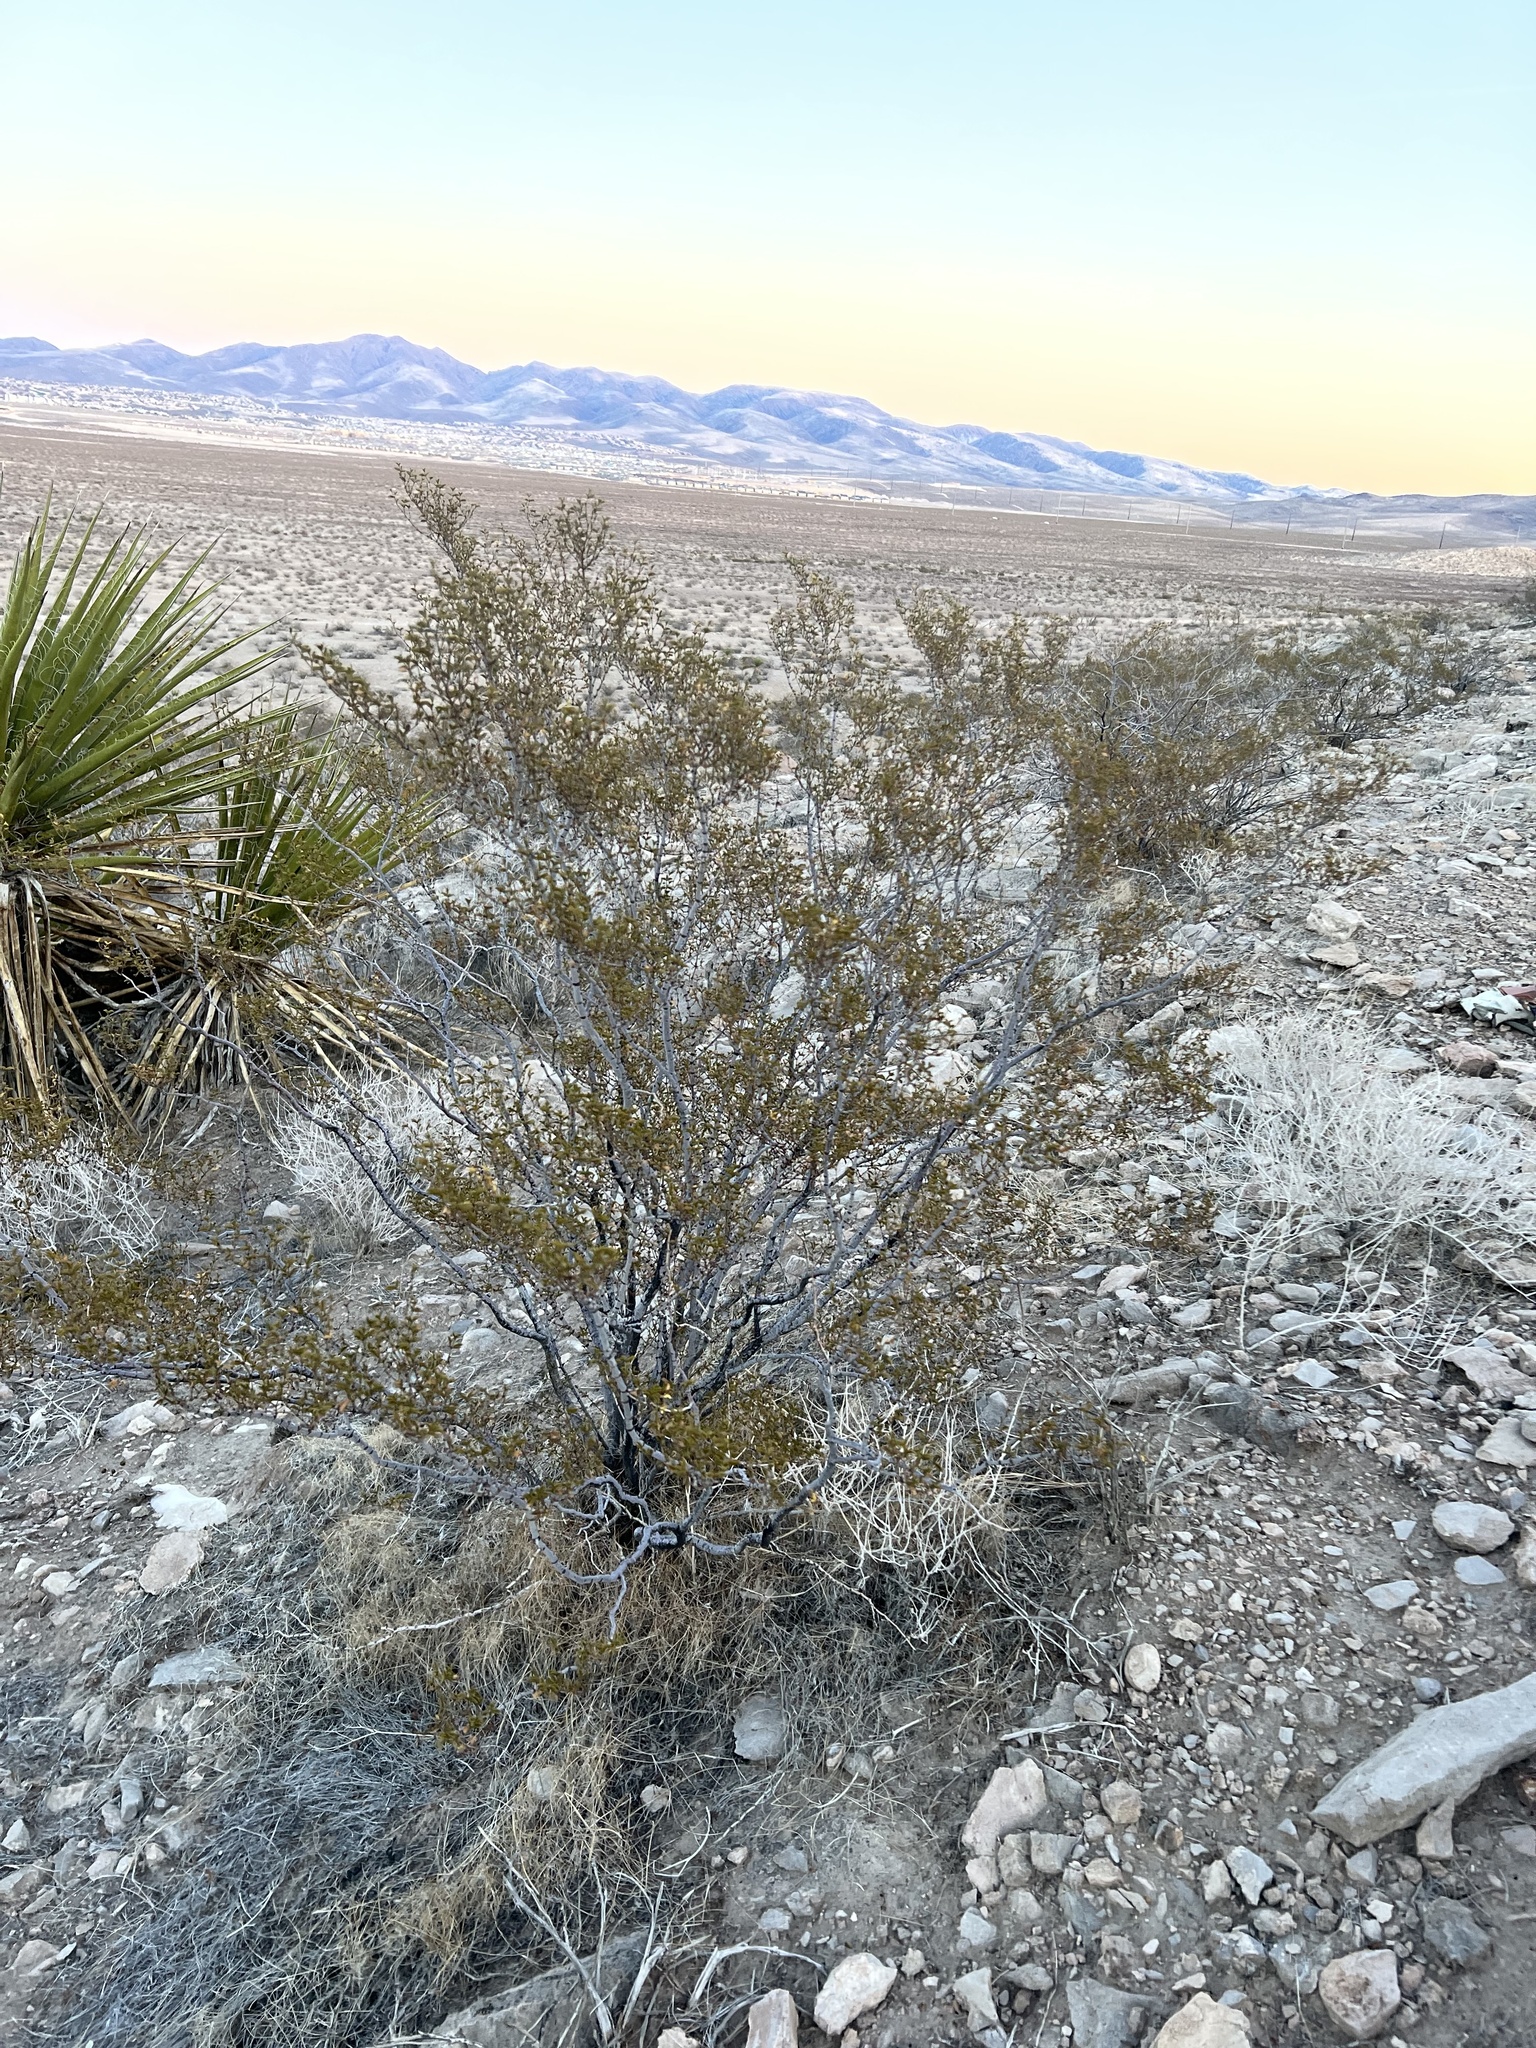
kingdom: Plantae
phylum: Tracheophyta
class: Magnoliopsida
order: Zygophyllales
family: Zygophyllaceae
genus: Larrea
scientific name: Larrea tridentata
